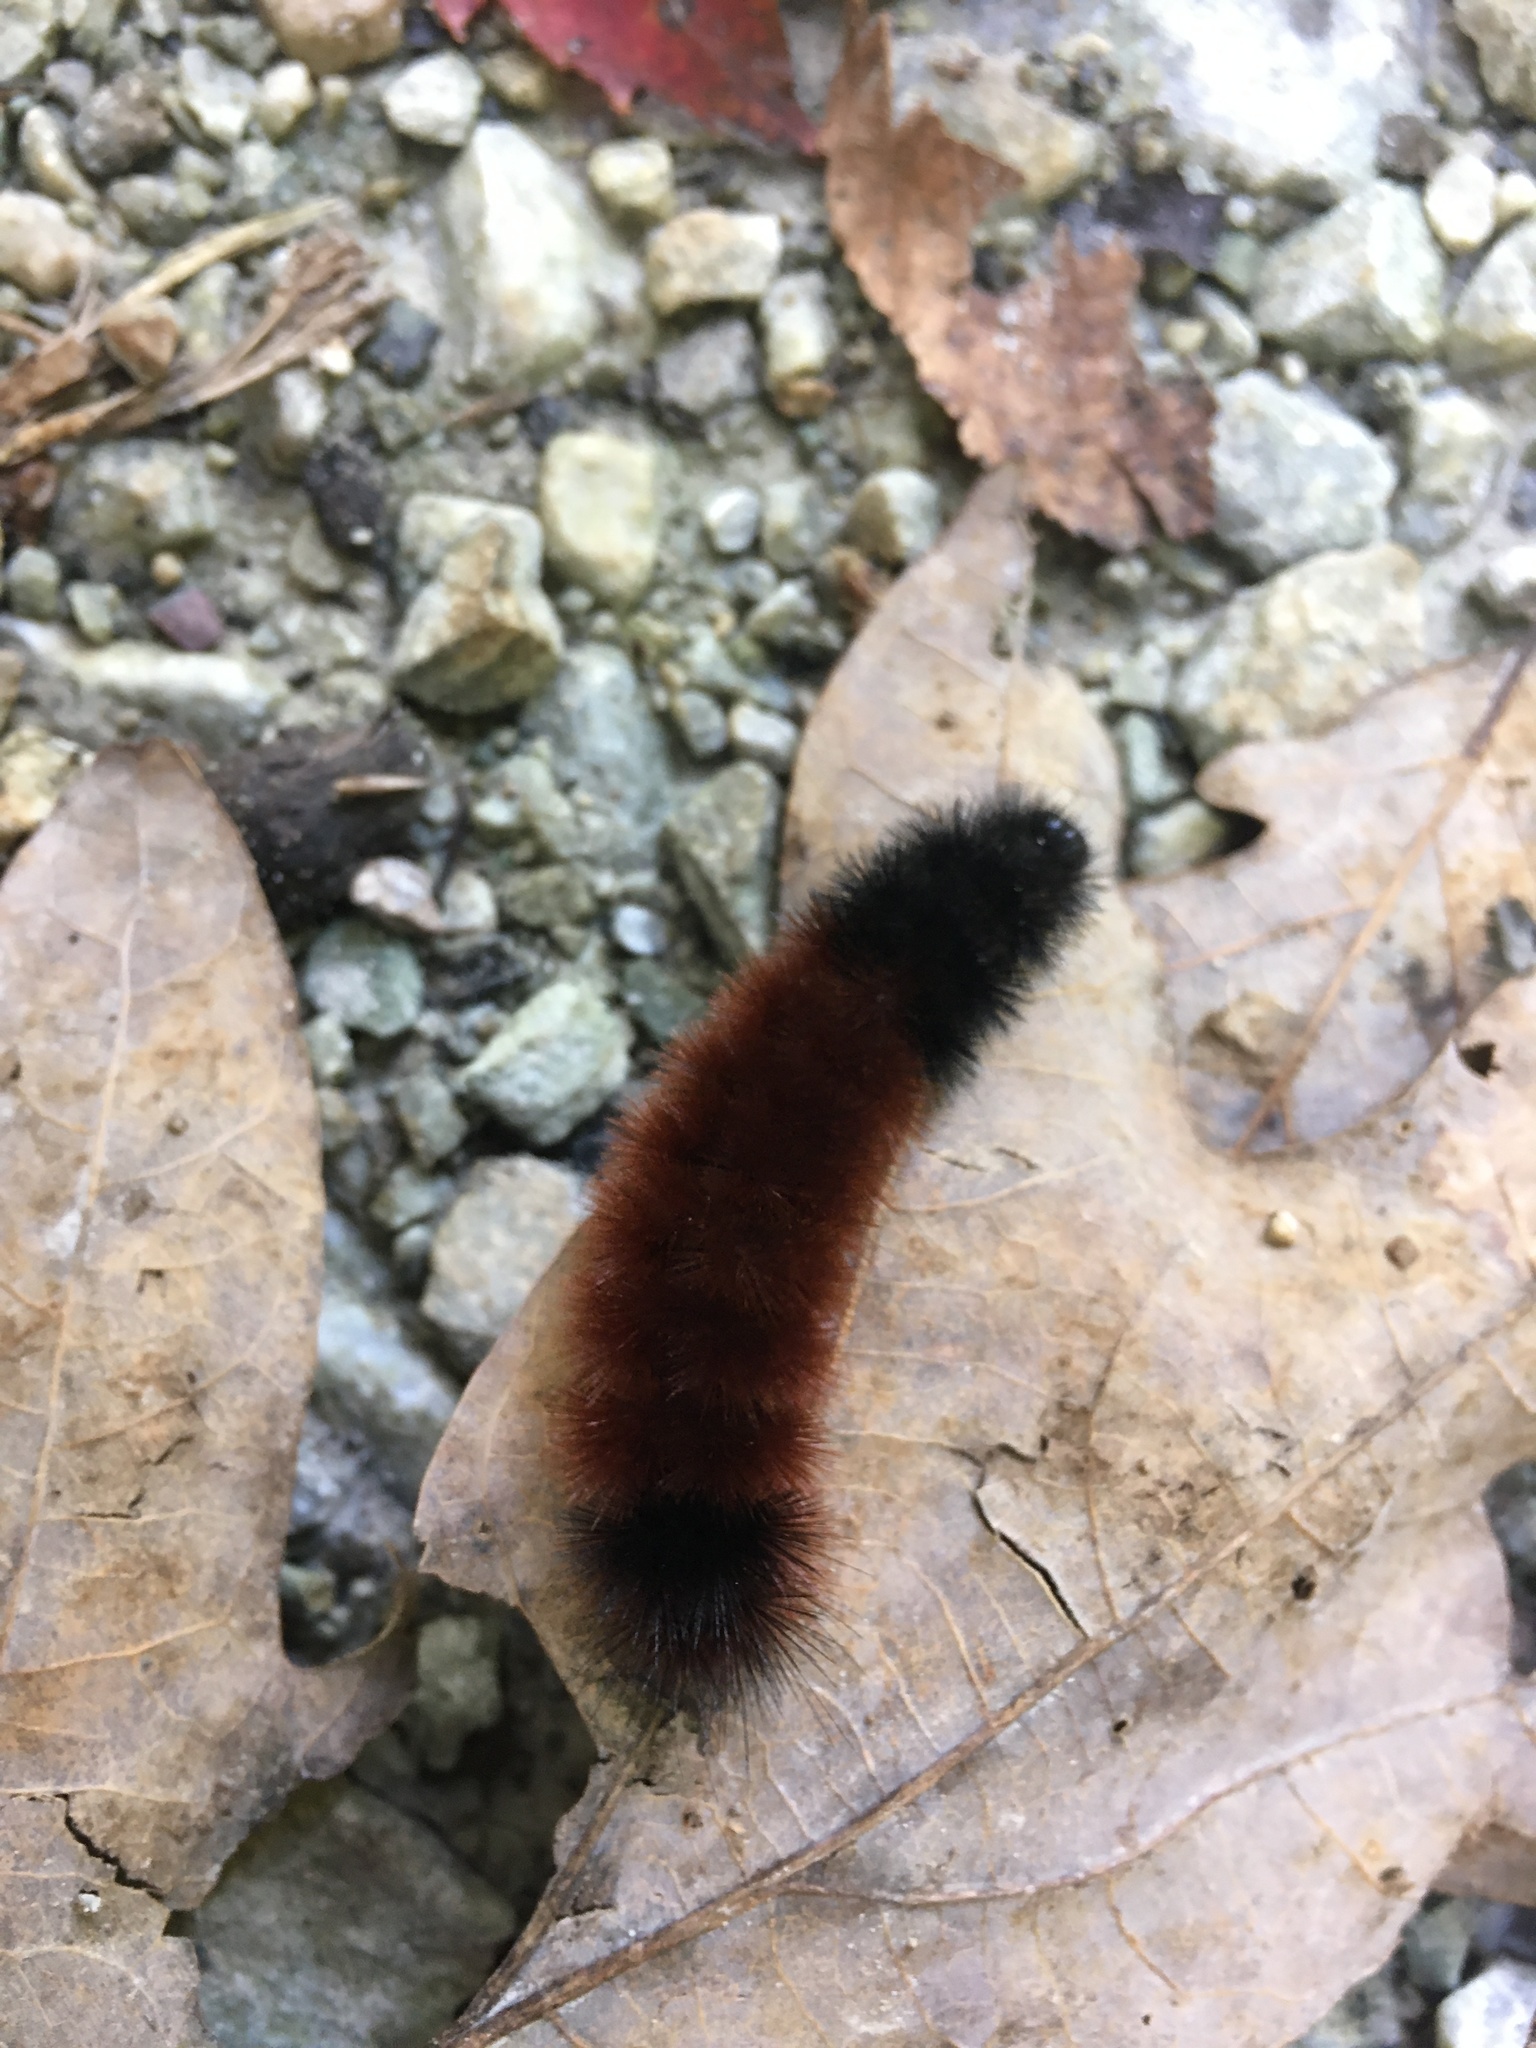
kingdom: Animalia
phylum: Arthropoda
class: Insecta
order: Lepidoptera
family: Erebidae
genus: Pyrrharctia
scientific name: Pyrrharctia isabella
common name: Isabella tiger moth
